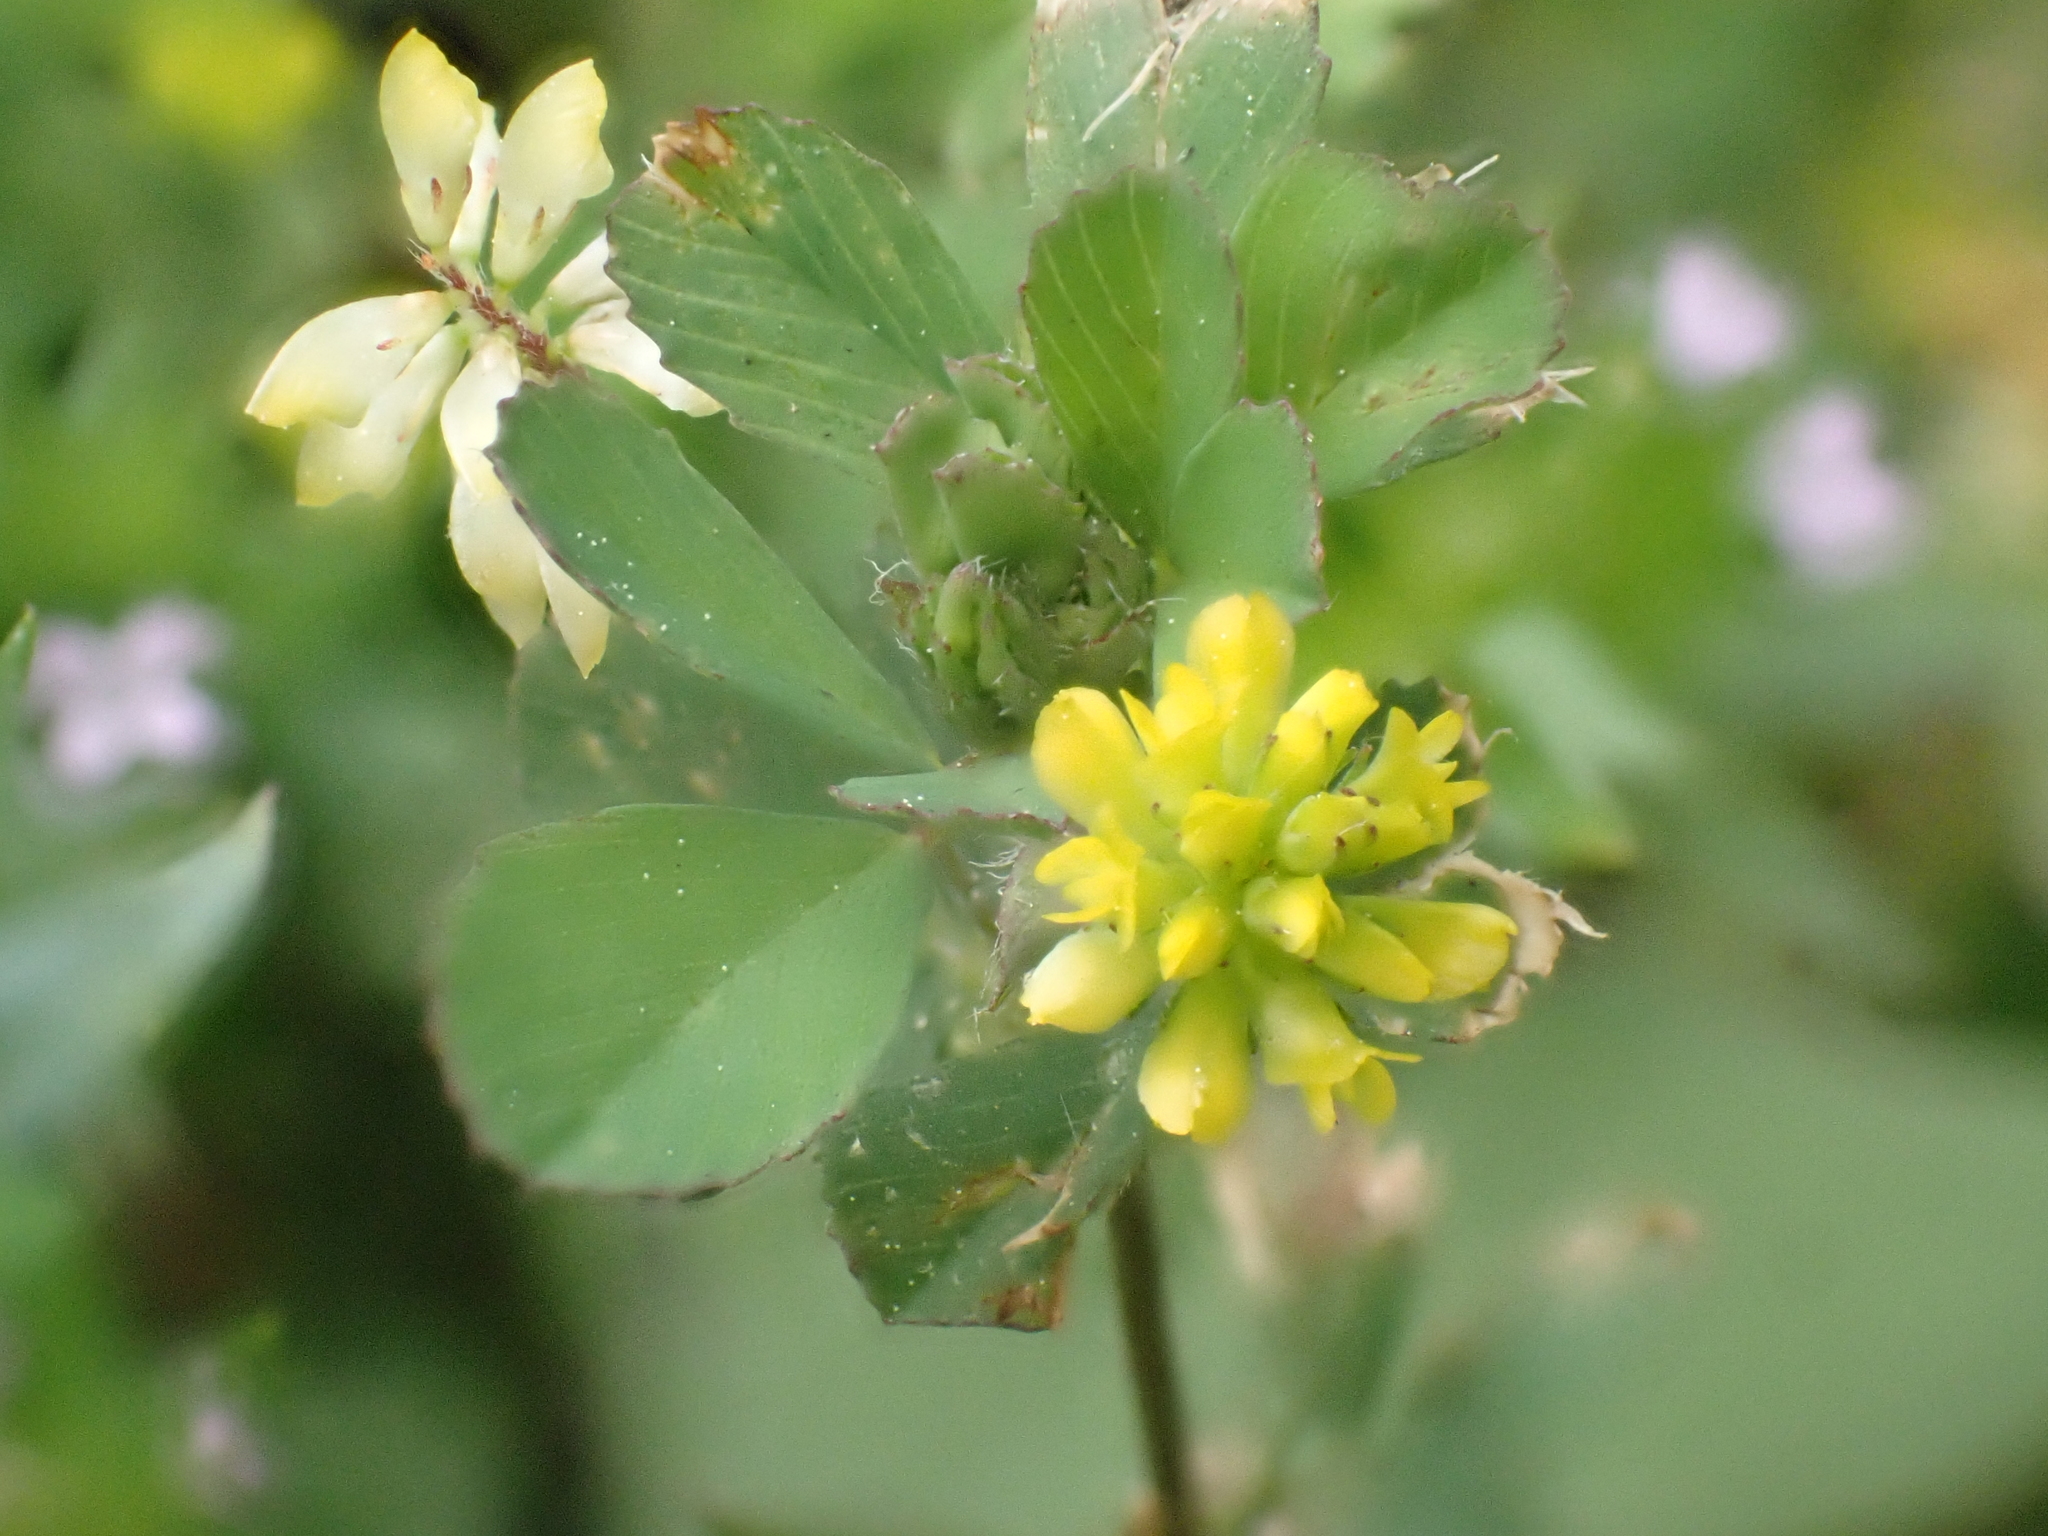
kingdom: Plantae
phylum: Tracheophyta
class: Magnoliopsida
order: Fabales
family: Fabaceae
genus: Trifolium
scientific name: Trifolium dubium
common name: Suckling clover
